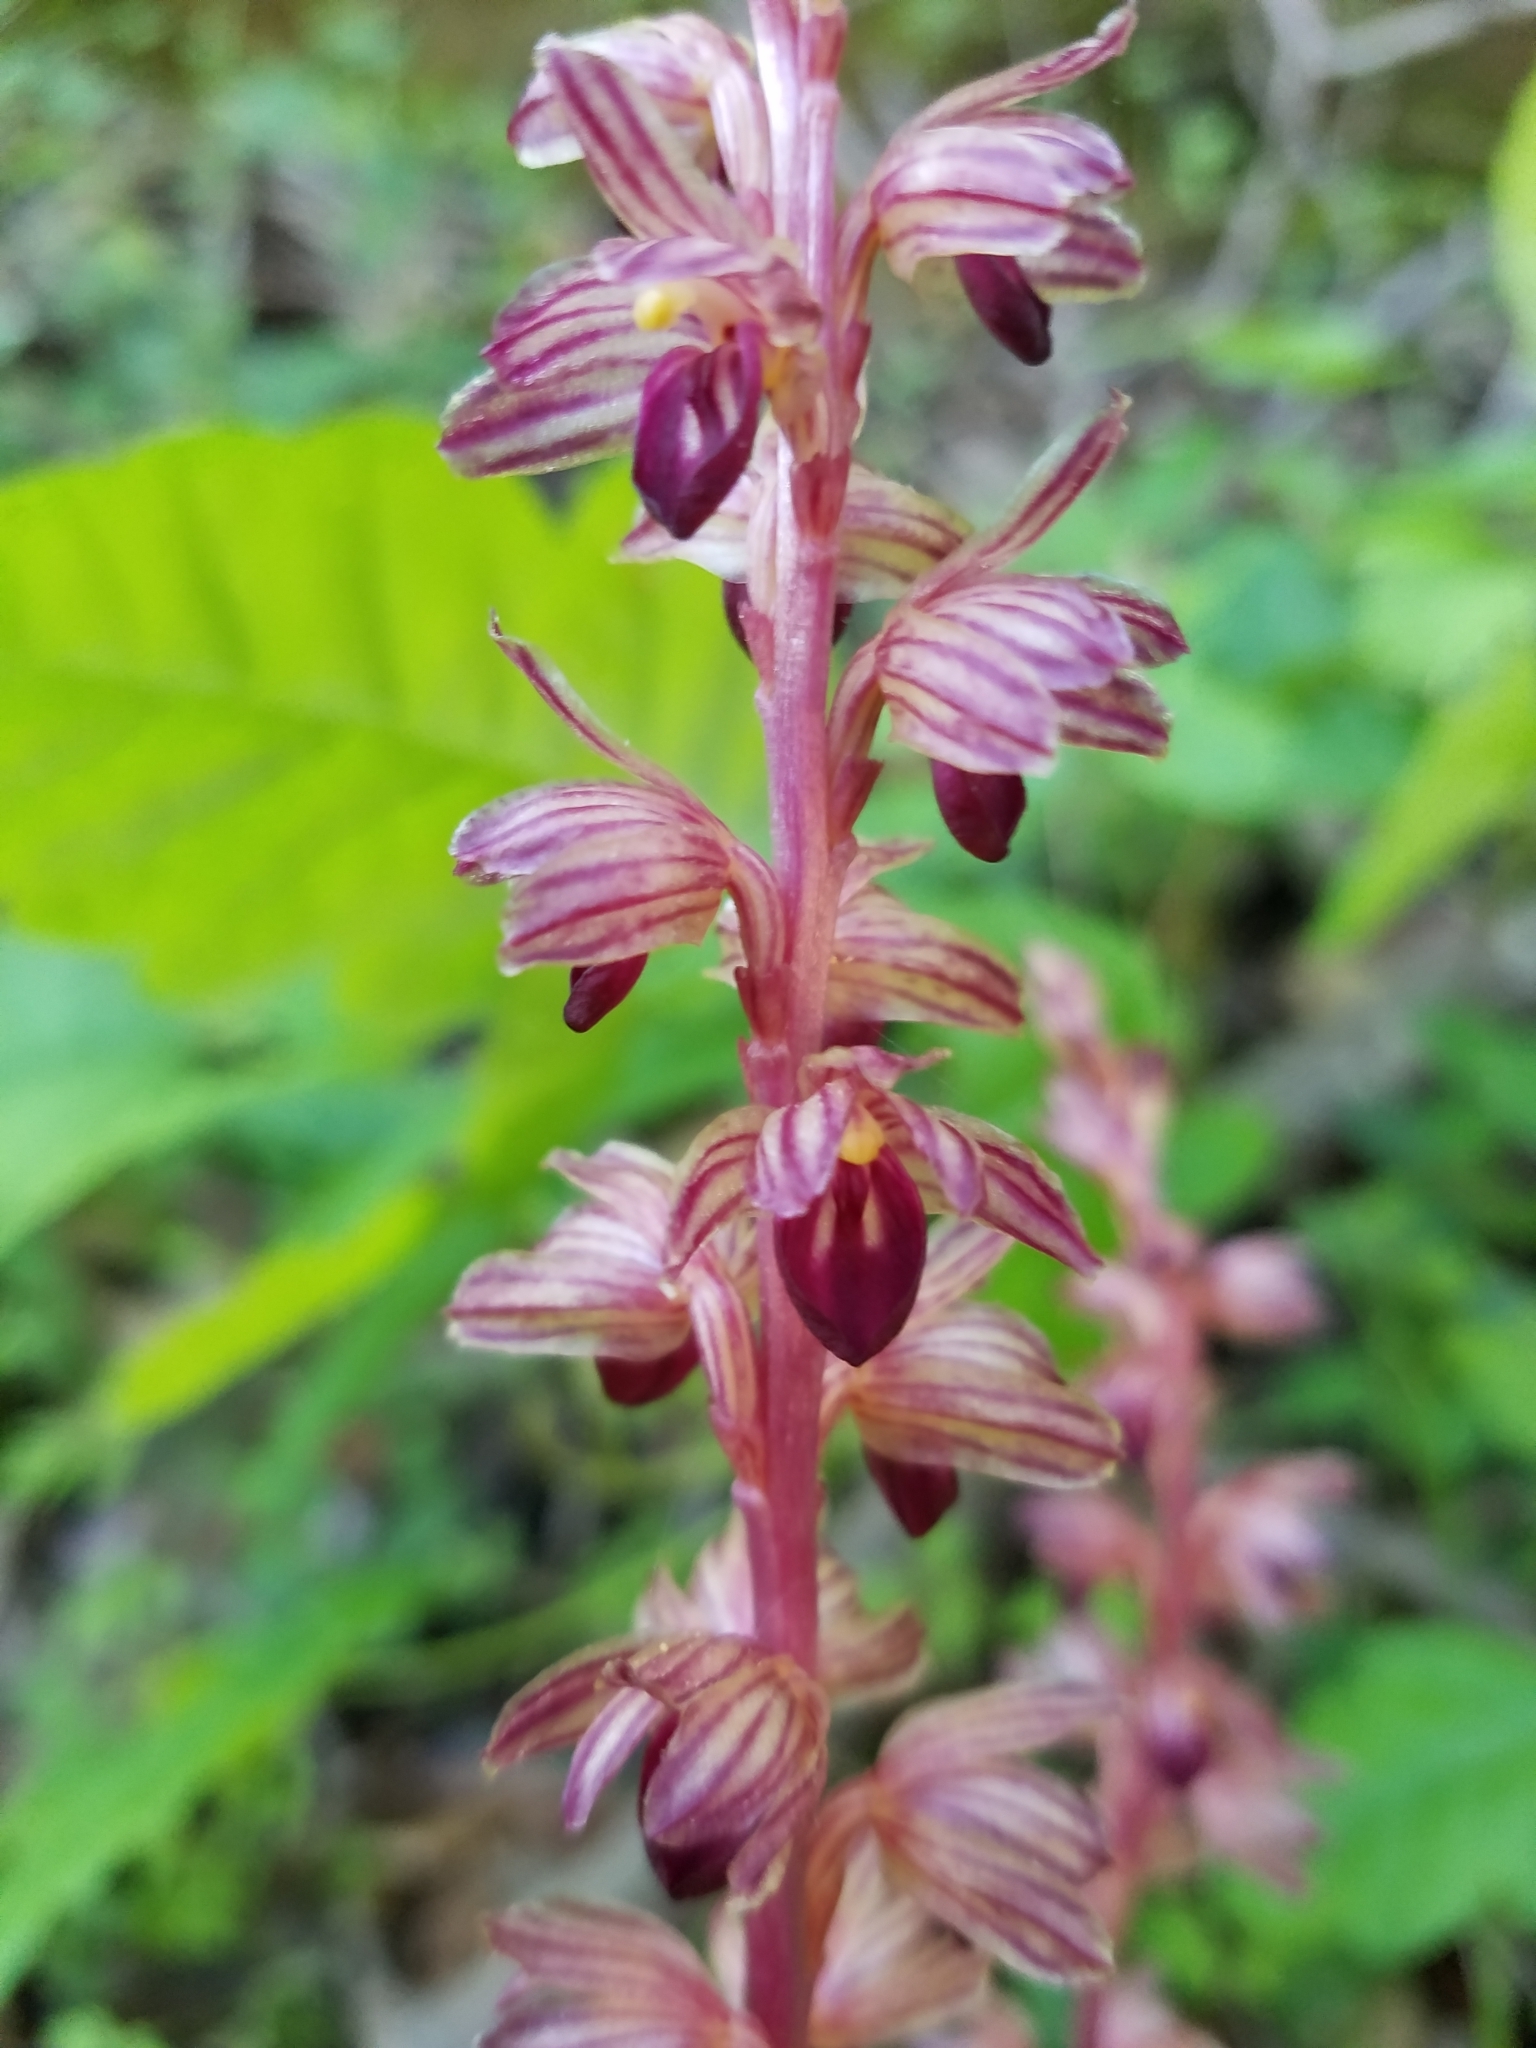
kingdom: Plantae
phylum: Tracheophyta
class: Liliopsida
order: Asparagales
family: Orchidaceae
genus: Corallorhiza
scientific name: Corallorhiza striata
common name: Hooded coralroot
